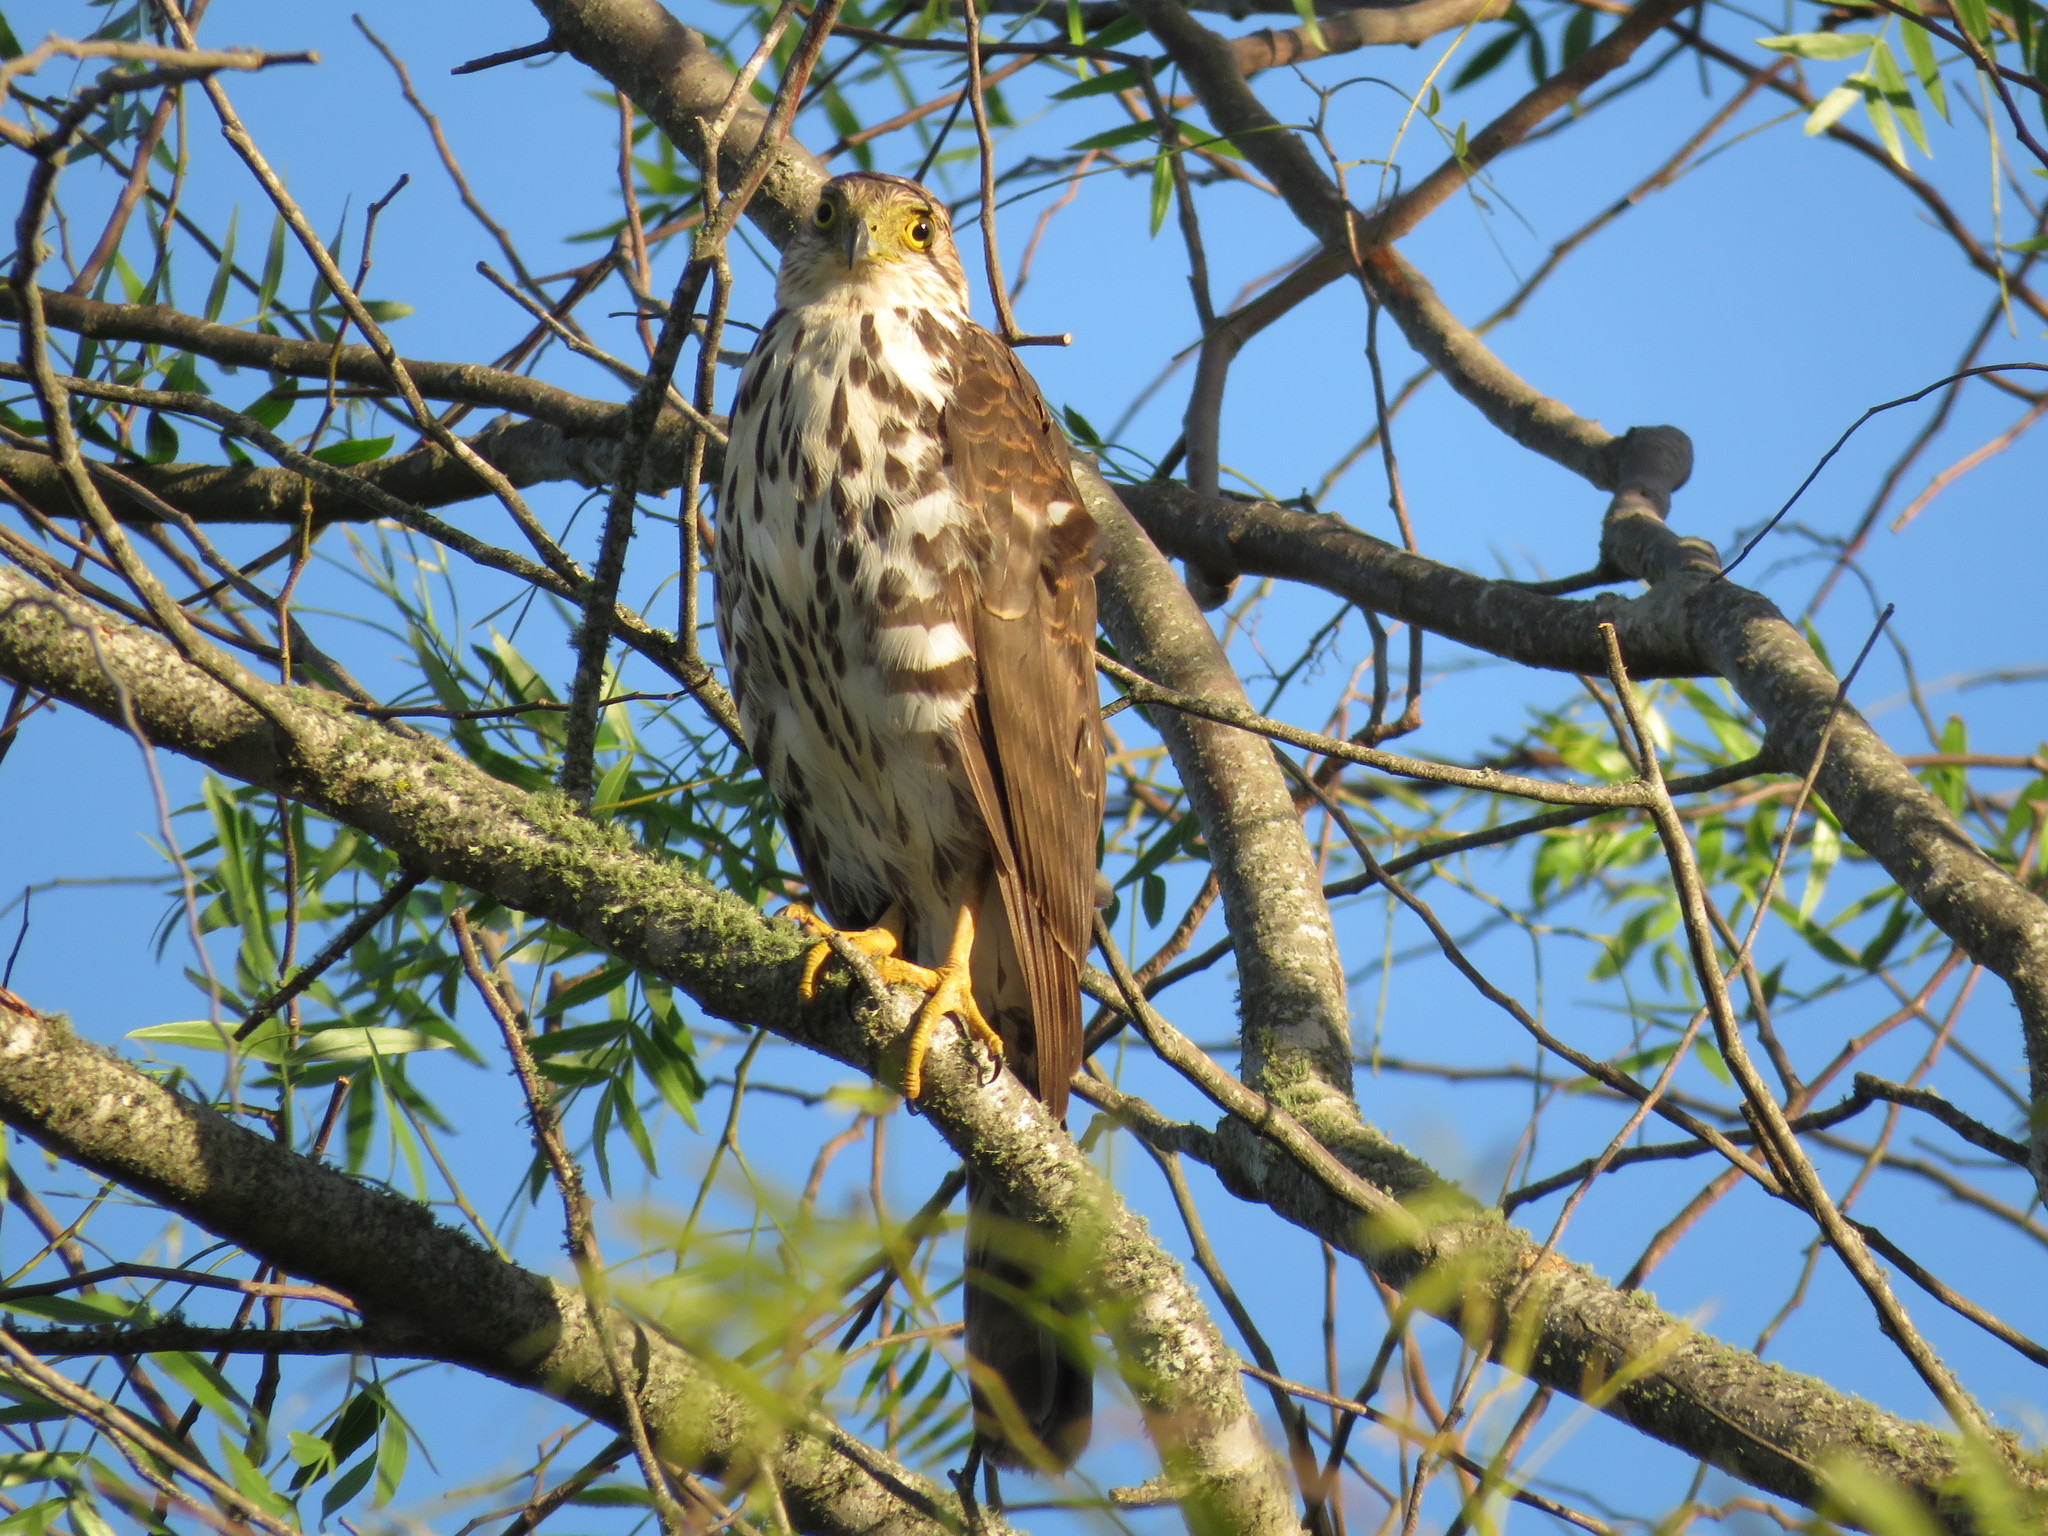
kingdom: Animalia
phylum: Chordata
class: Aves
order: Accipitriformes
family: Accipitridae
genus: Accipiter
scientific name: Accipiter bicolor
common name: Bicolored hawk
